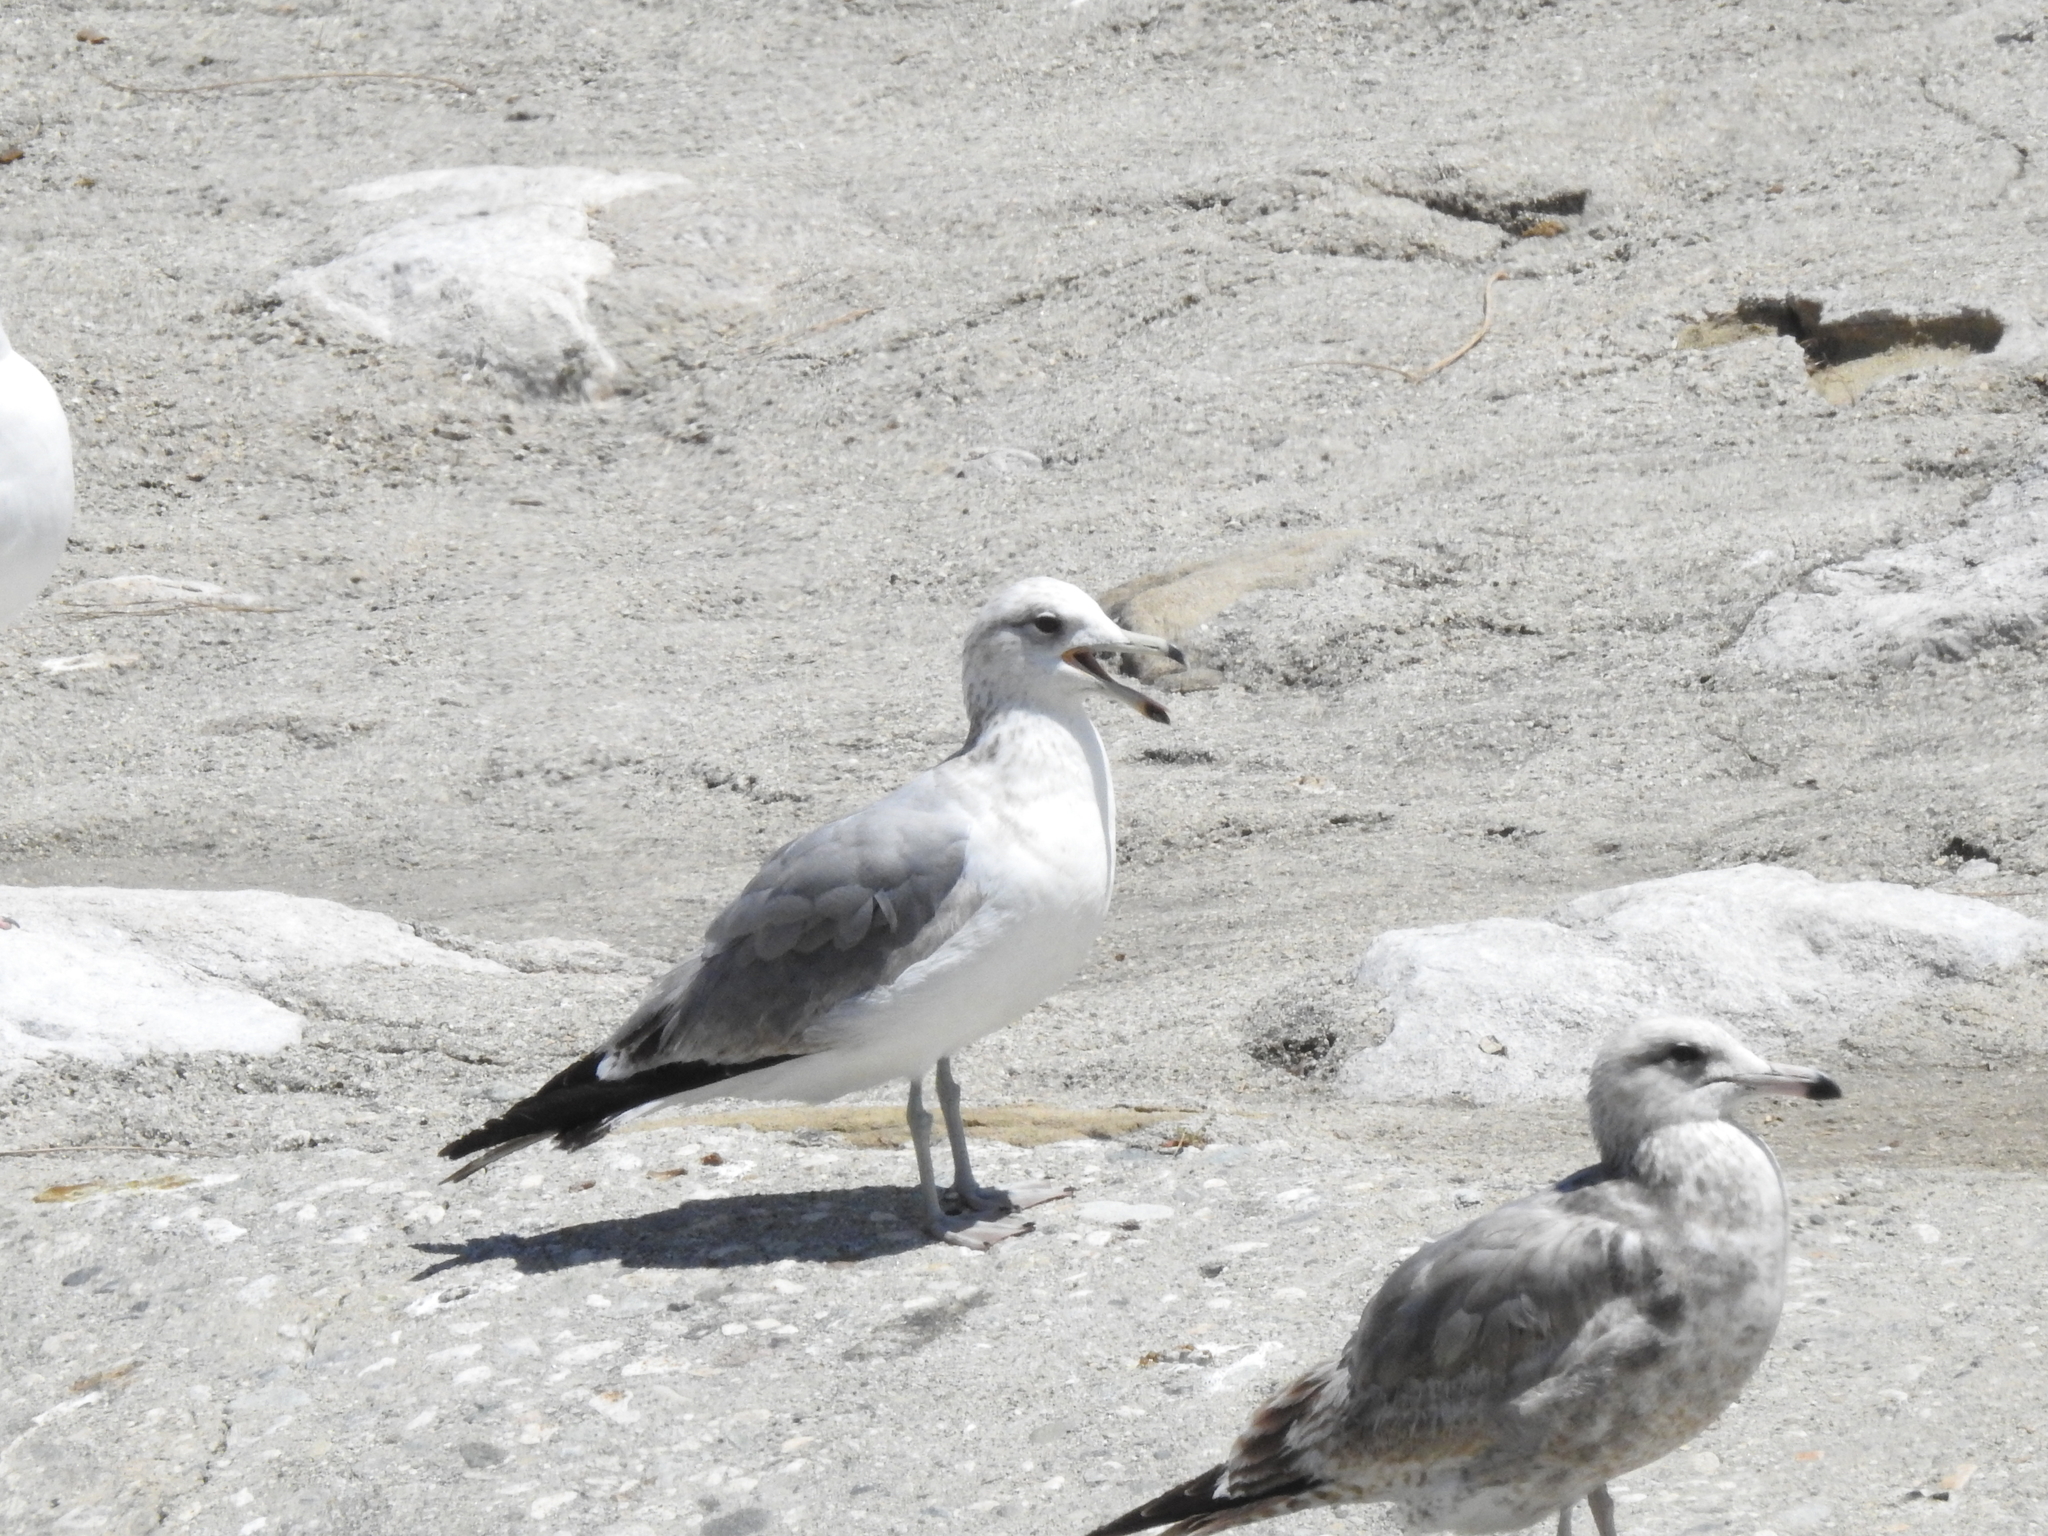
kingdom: Animalia
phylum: Chordata
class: Aves
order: Charadriiformes
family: Laridae
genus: Larus
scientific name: Larus californicus
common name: California gull
